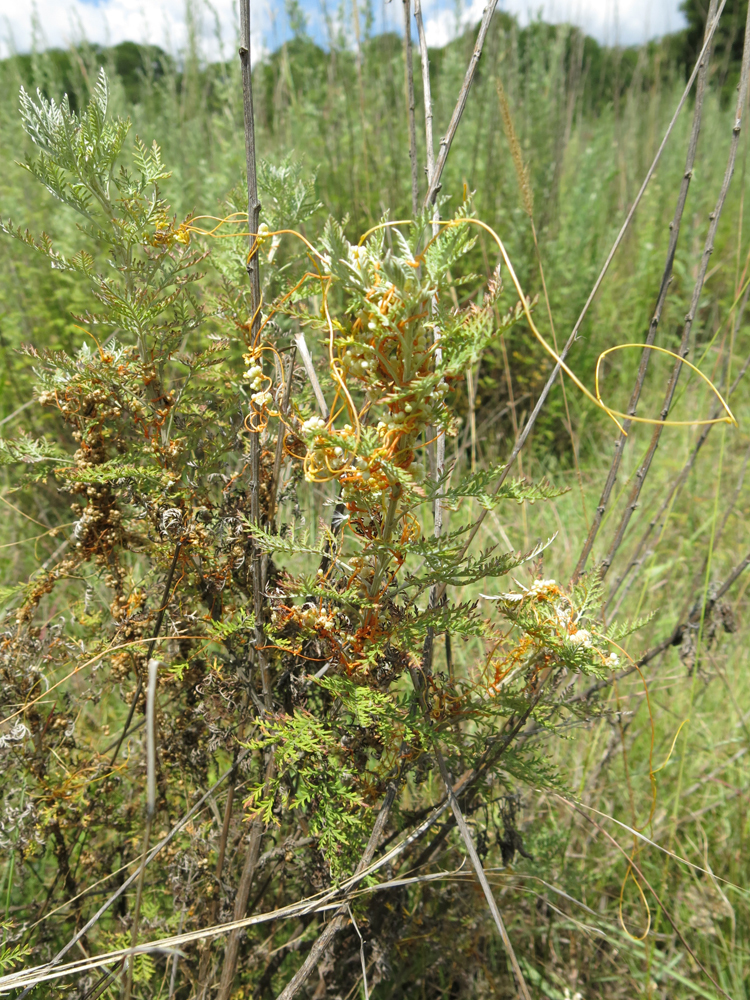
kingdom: Plantae
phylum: Tracheophyta
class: Magnoliopsida
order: Solanales
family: Convolvulaceae
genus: Cuscuta
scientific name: Cuscuta campestris
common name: Yellow dodder
